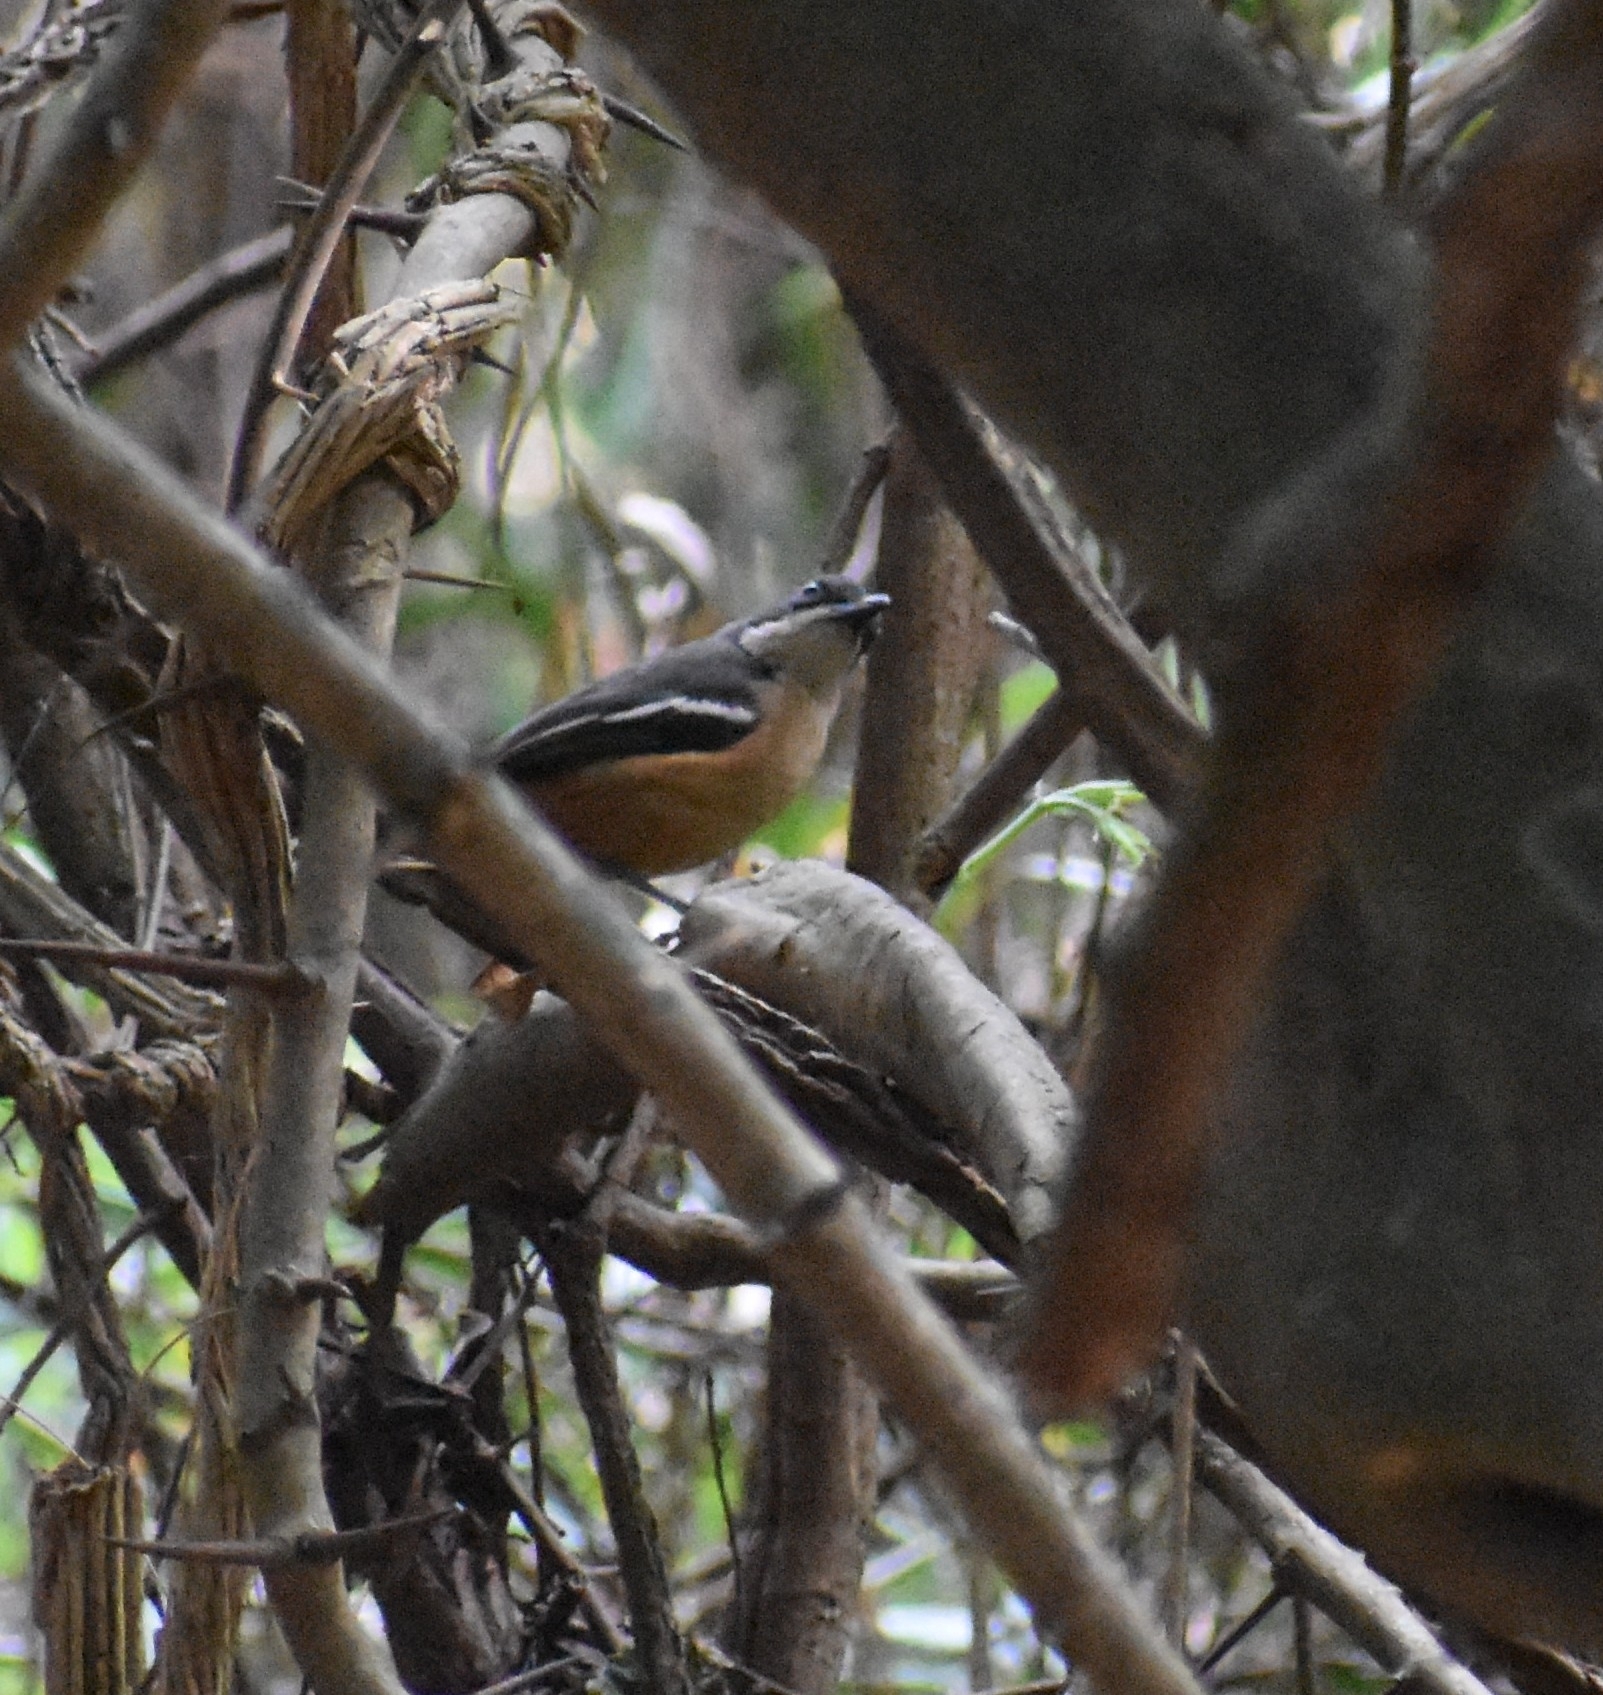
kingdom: Animalia
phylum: Chordata
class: Aves
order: Passeriformes
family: Malaconotidae
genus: Laniarius
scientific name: Laniarius ferrugineus
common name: Southern boubou
